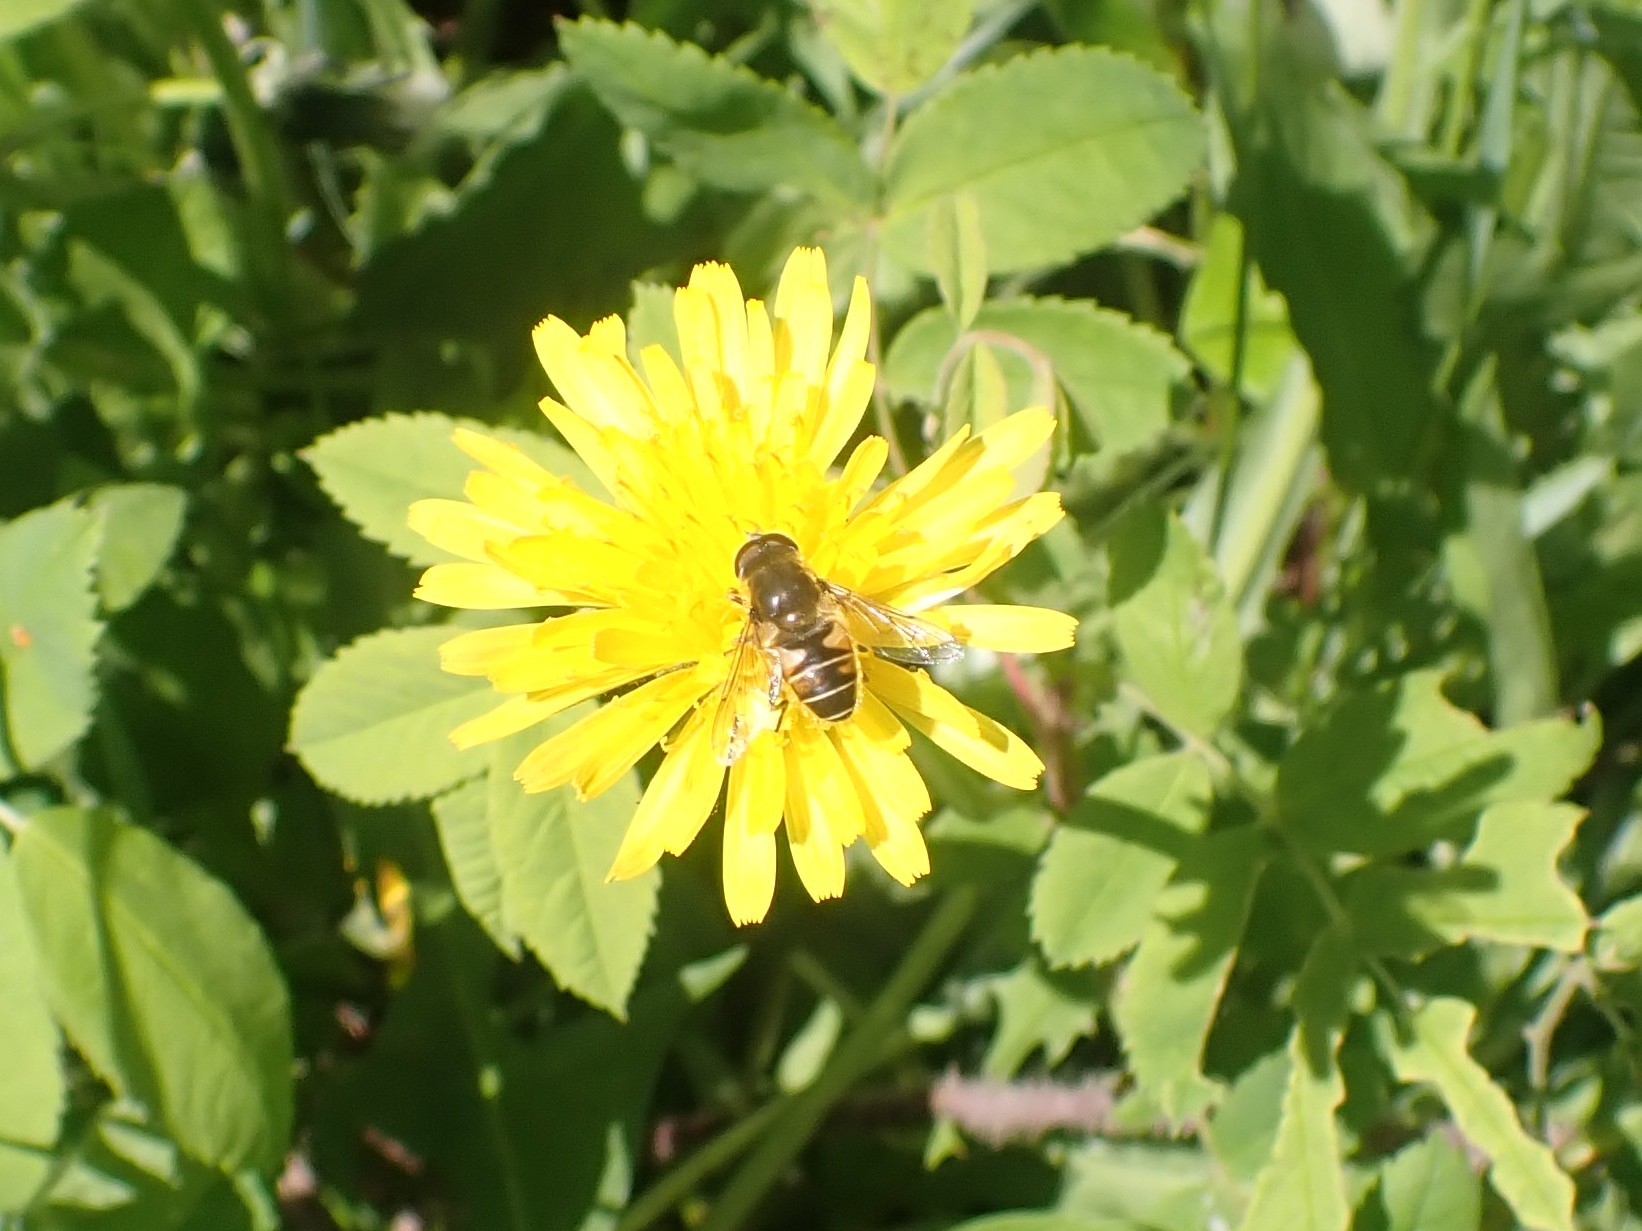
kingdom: Animalia
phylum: Arthropoda
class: Insecta
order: Diptera
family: Syrphidae
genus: Eristalis
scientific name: Eristalis nemorum
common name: Orange-spined drone fly
